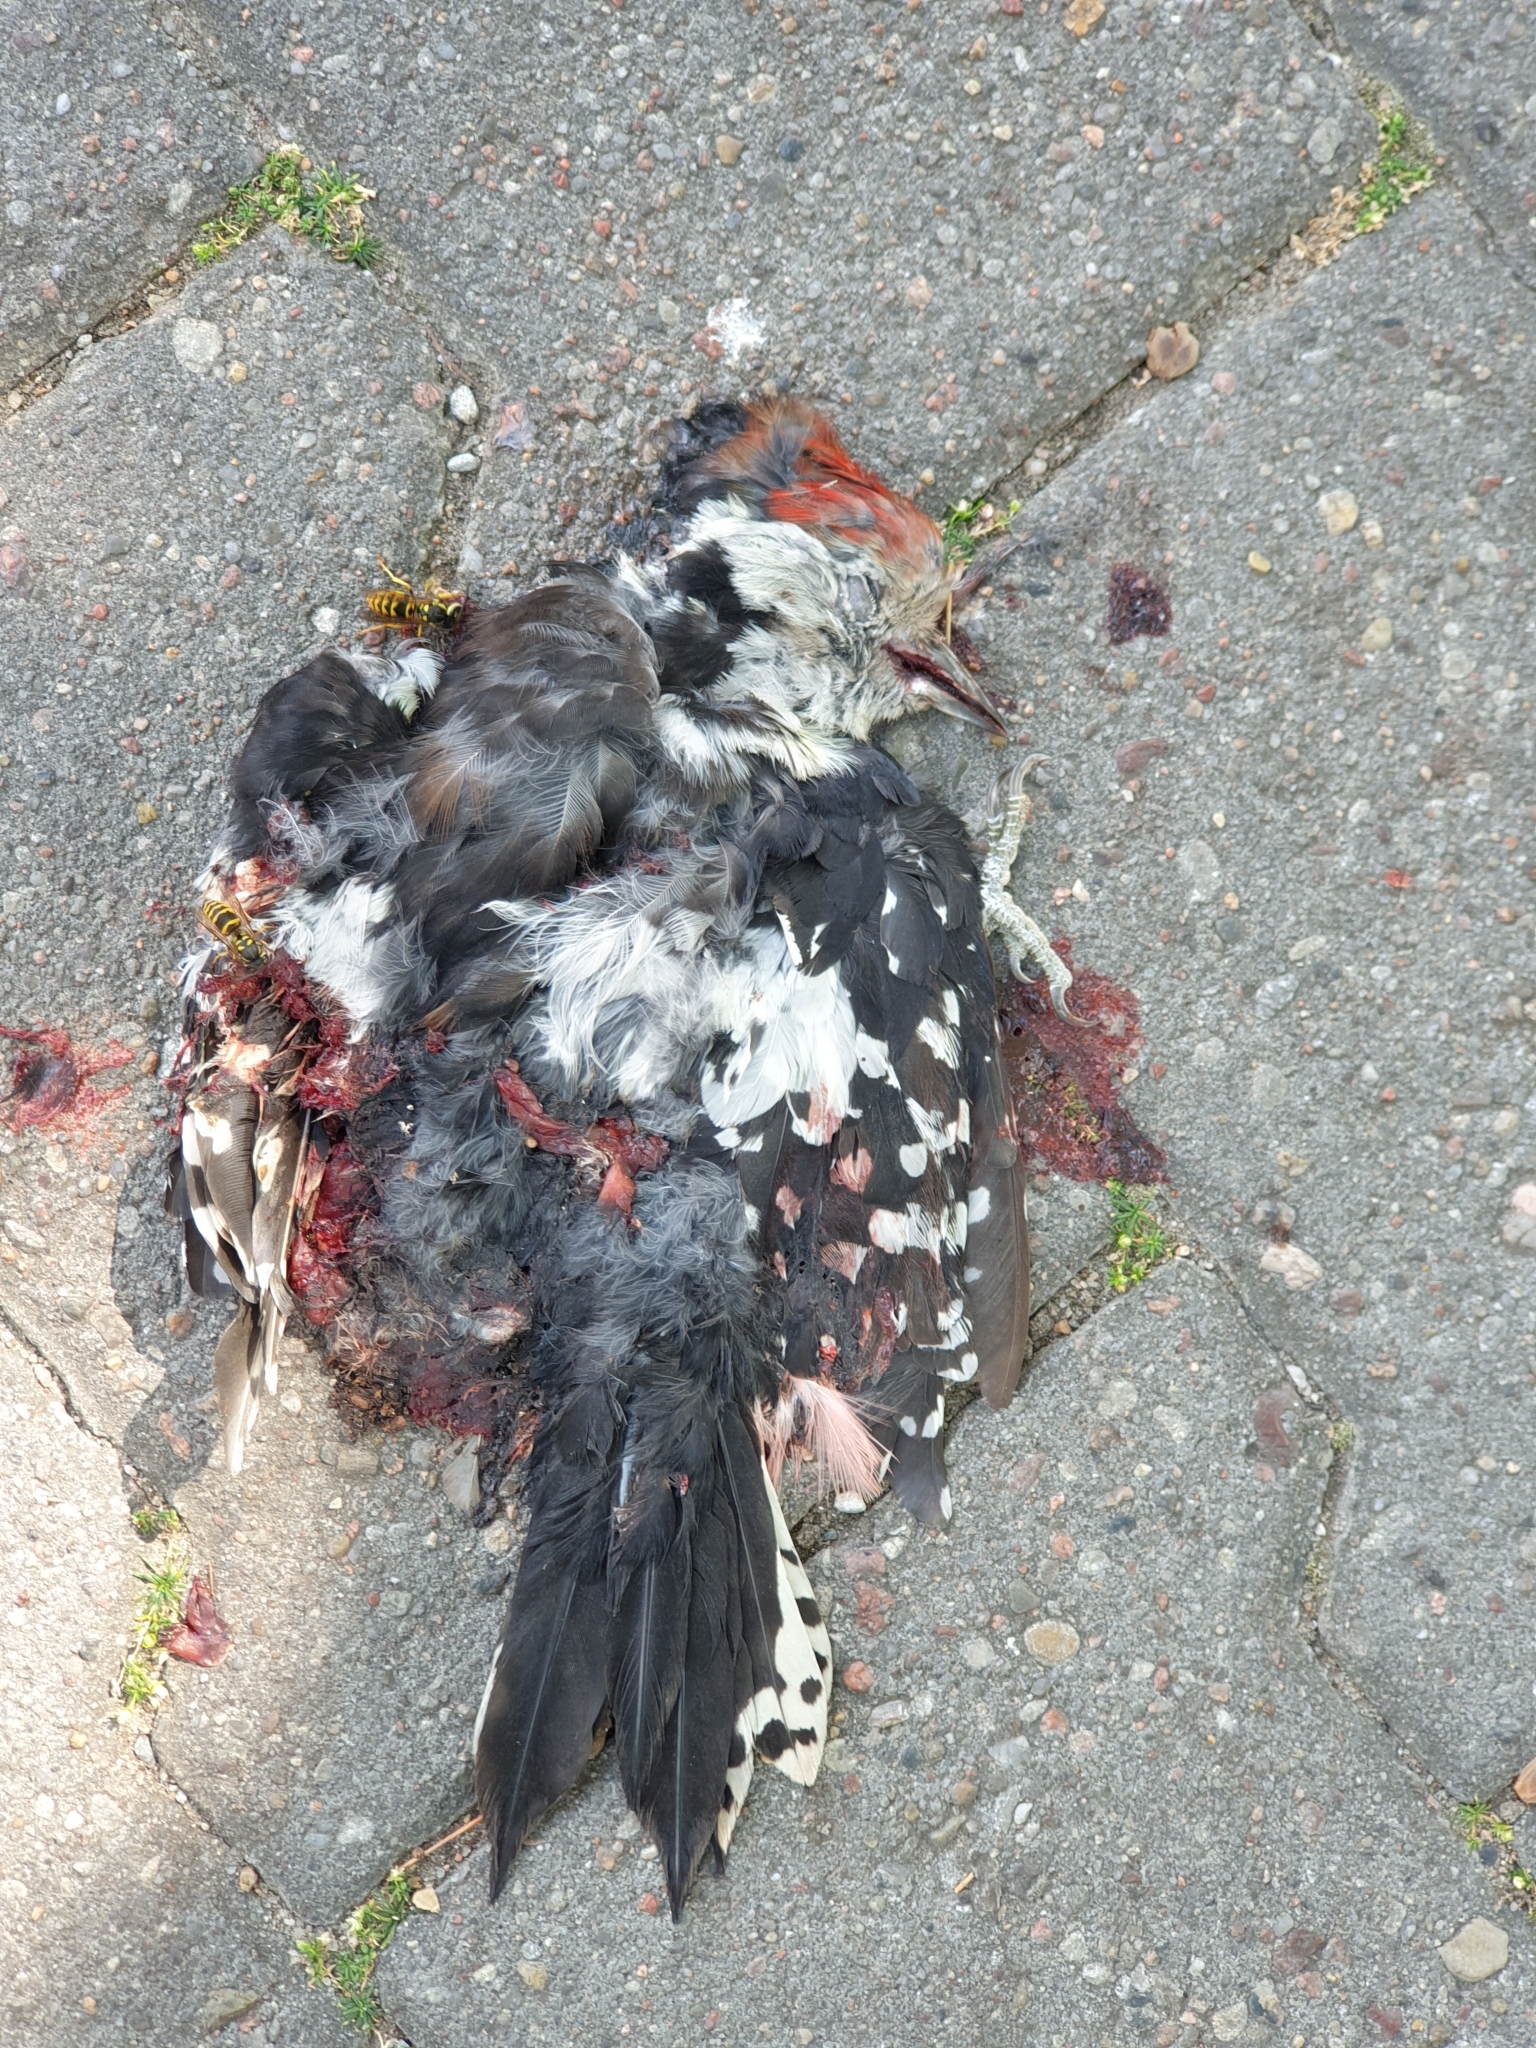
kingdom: Animalia
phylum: Chordata
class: Aves
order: Piciformes
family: Picidae
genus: Dendrocoptes
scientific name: Dendrocoptes medius
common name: Middle spotted woodpecker
